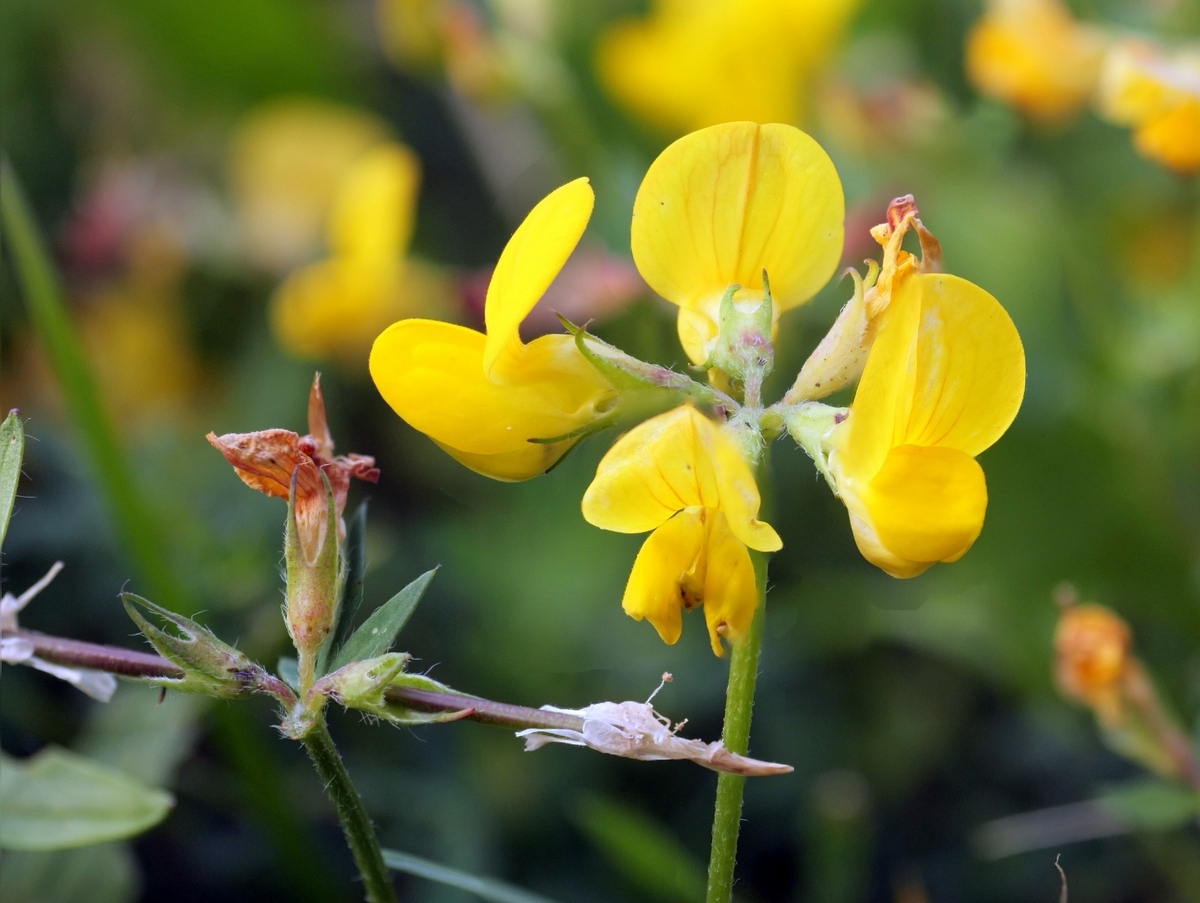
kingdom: Plantae
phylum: Tracheophyta
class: Magnoliopsida
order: Fabales
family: Fabaceae
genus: Lotus
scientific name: Lotus corniculatus
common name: Common bird's-foot-trefoil
